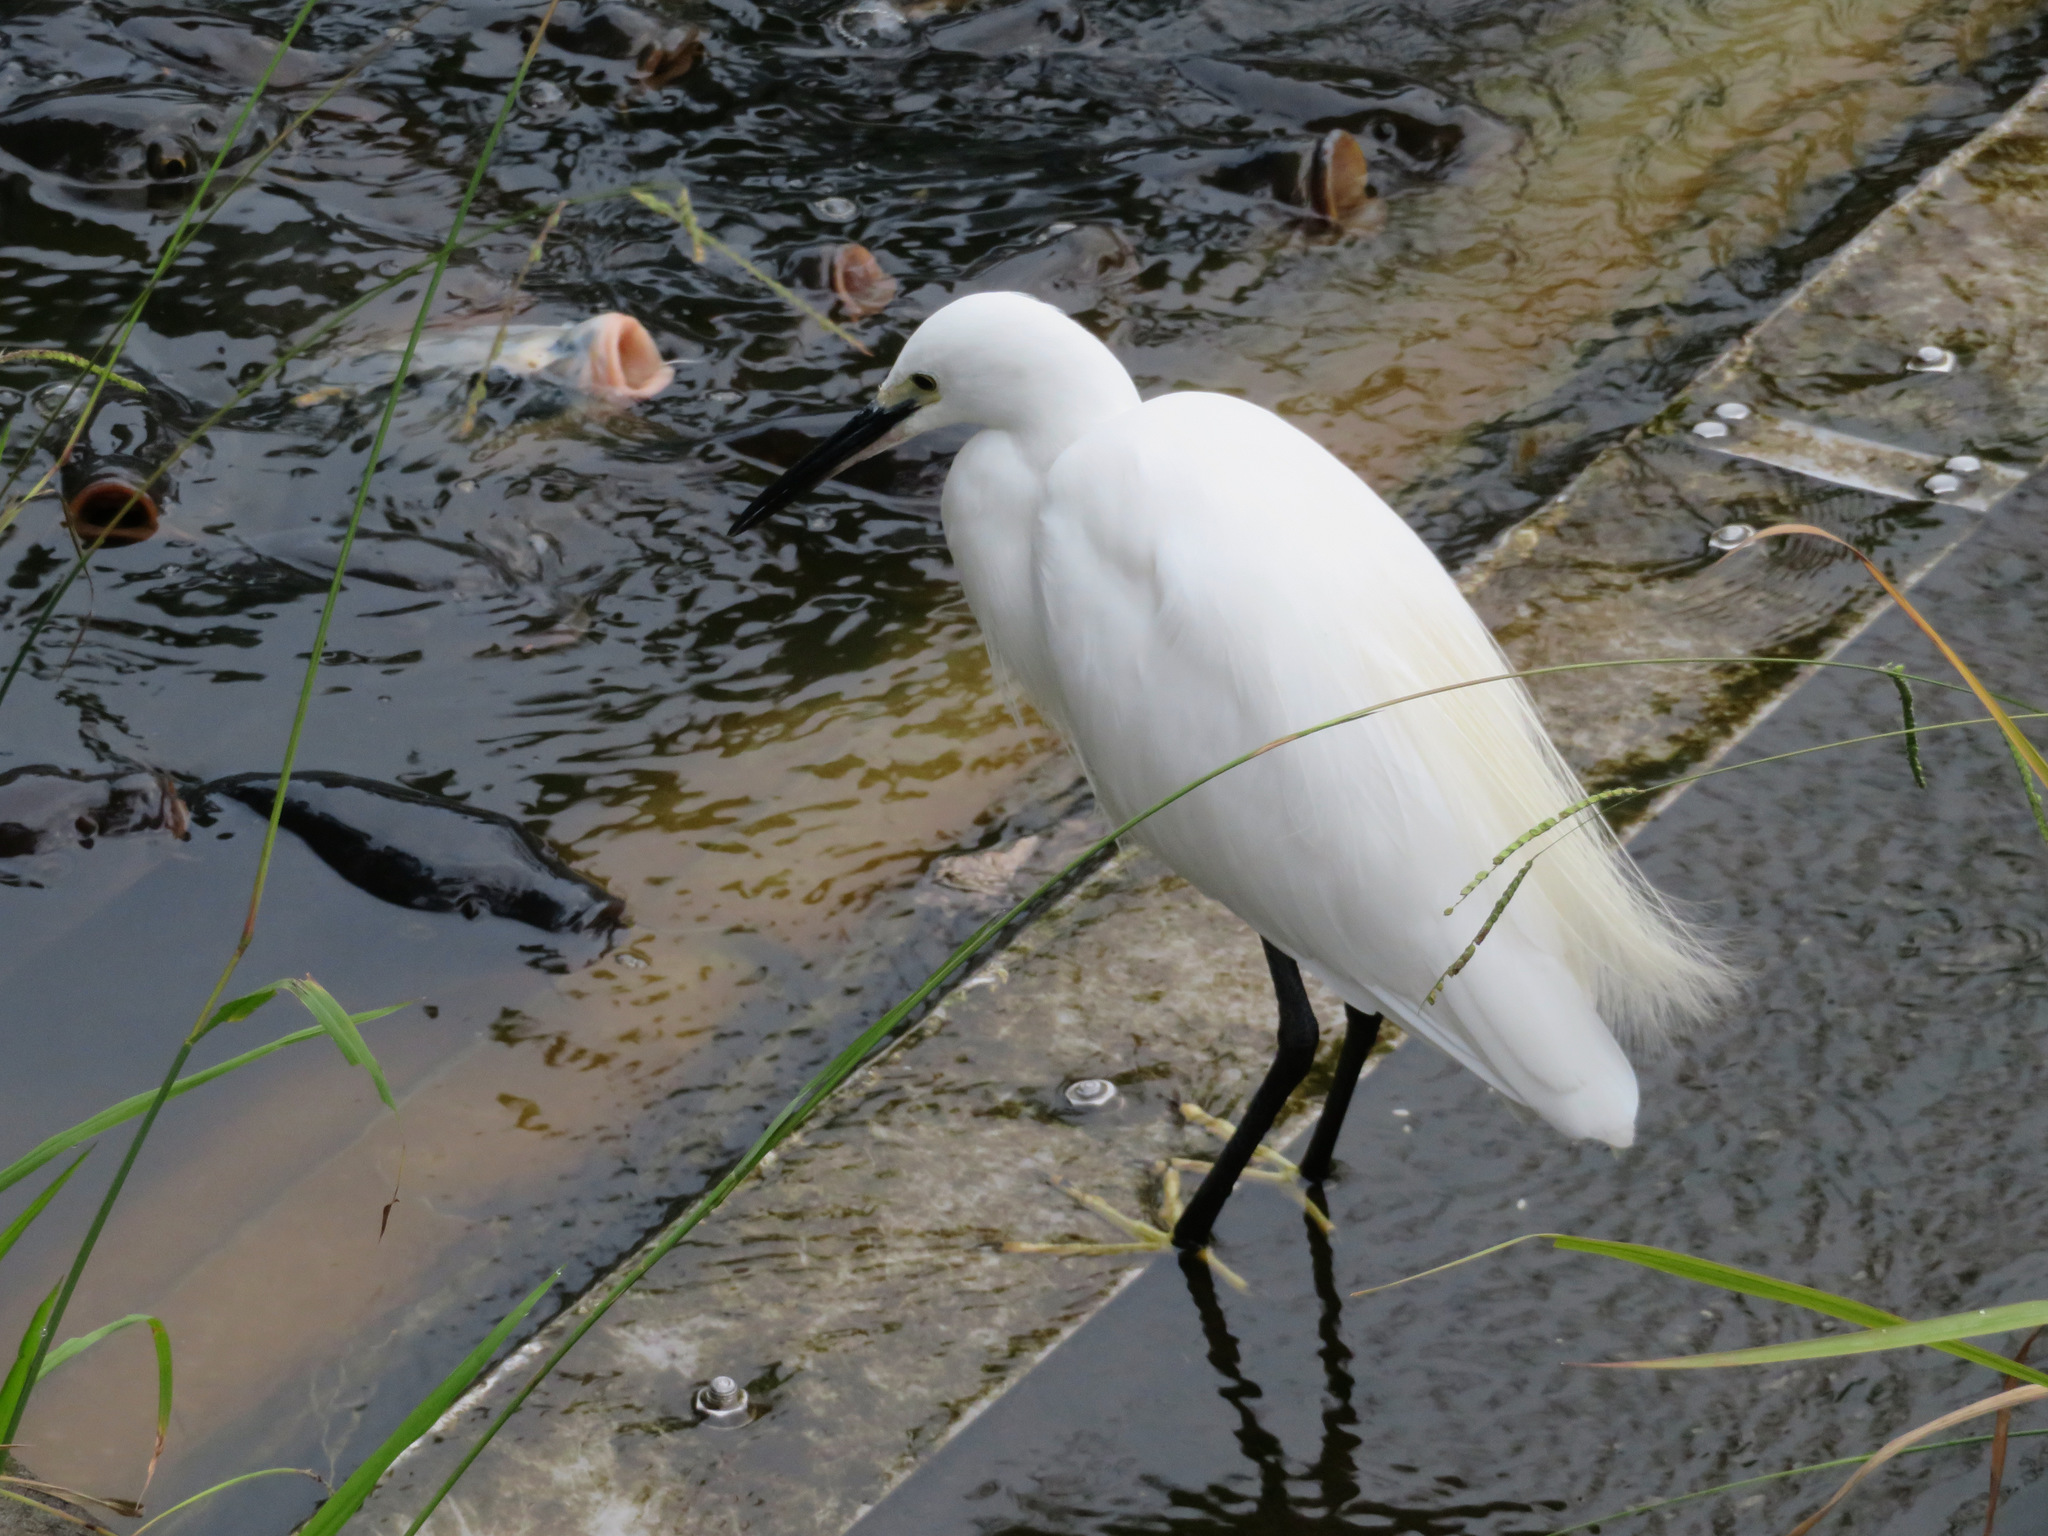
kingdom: Animalia
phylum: Chordata
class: Aves
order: Pelecaniformes
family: Ardeidae
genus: Egretta
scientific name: Egretta garzetta
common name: Little egret
